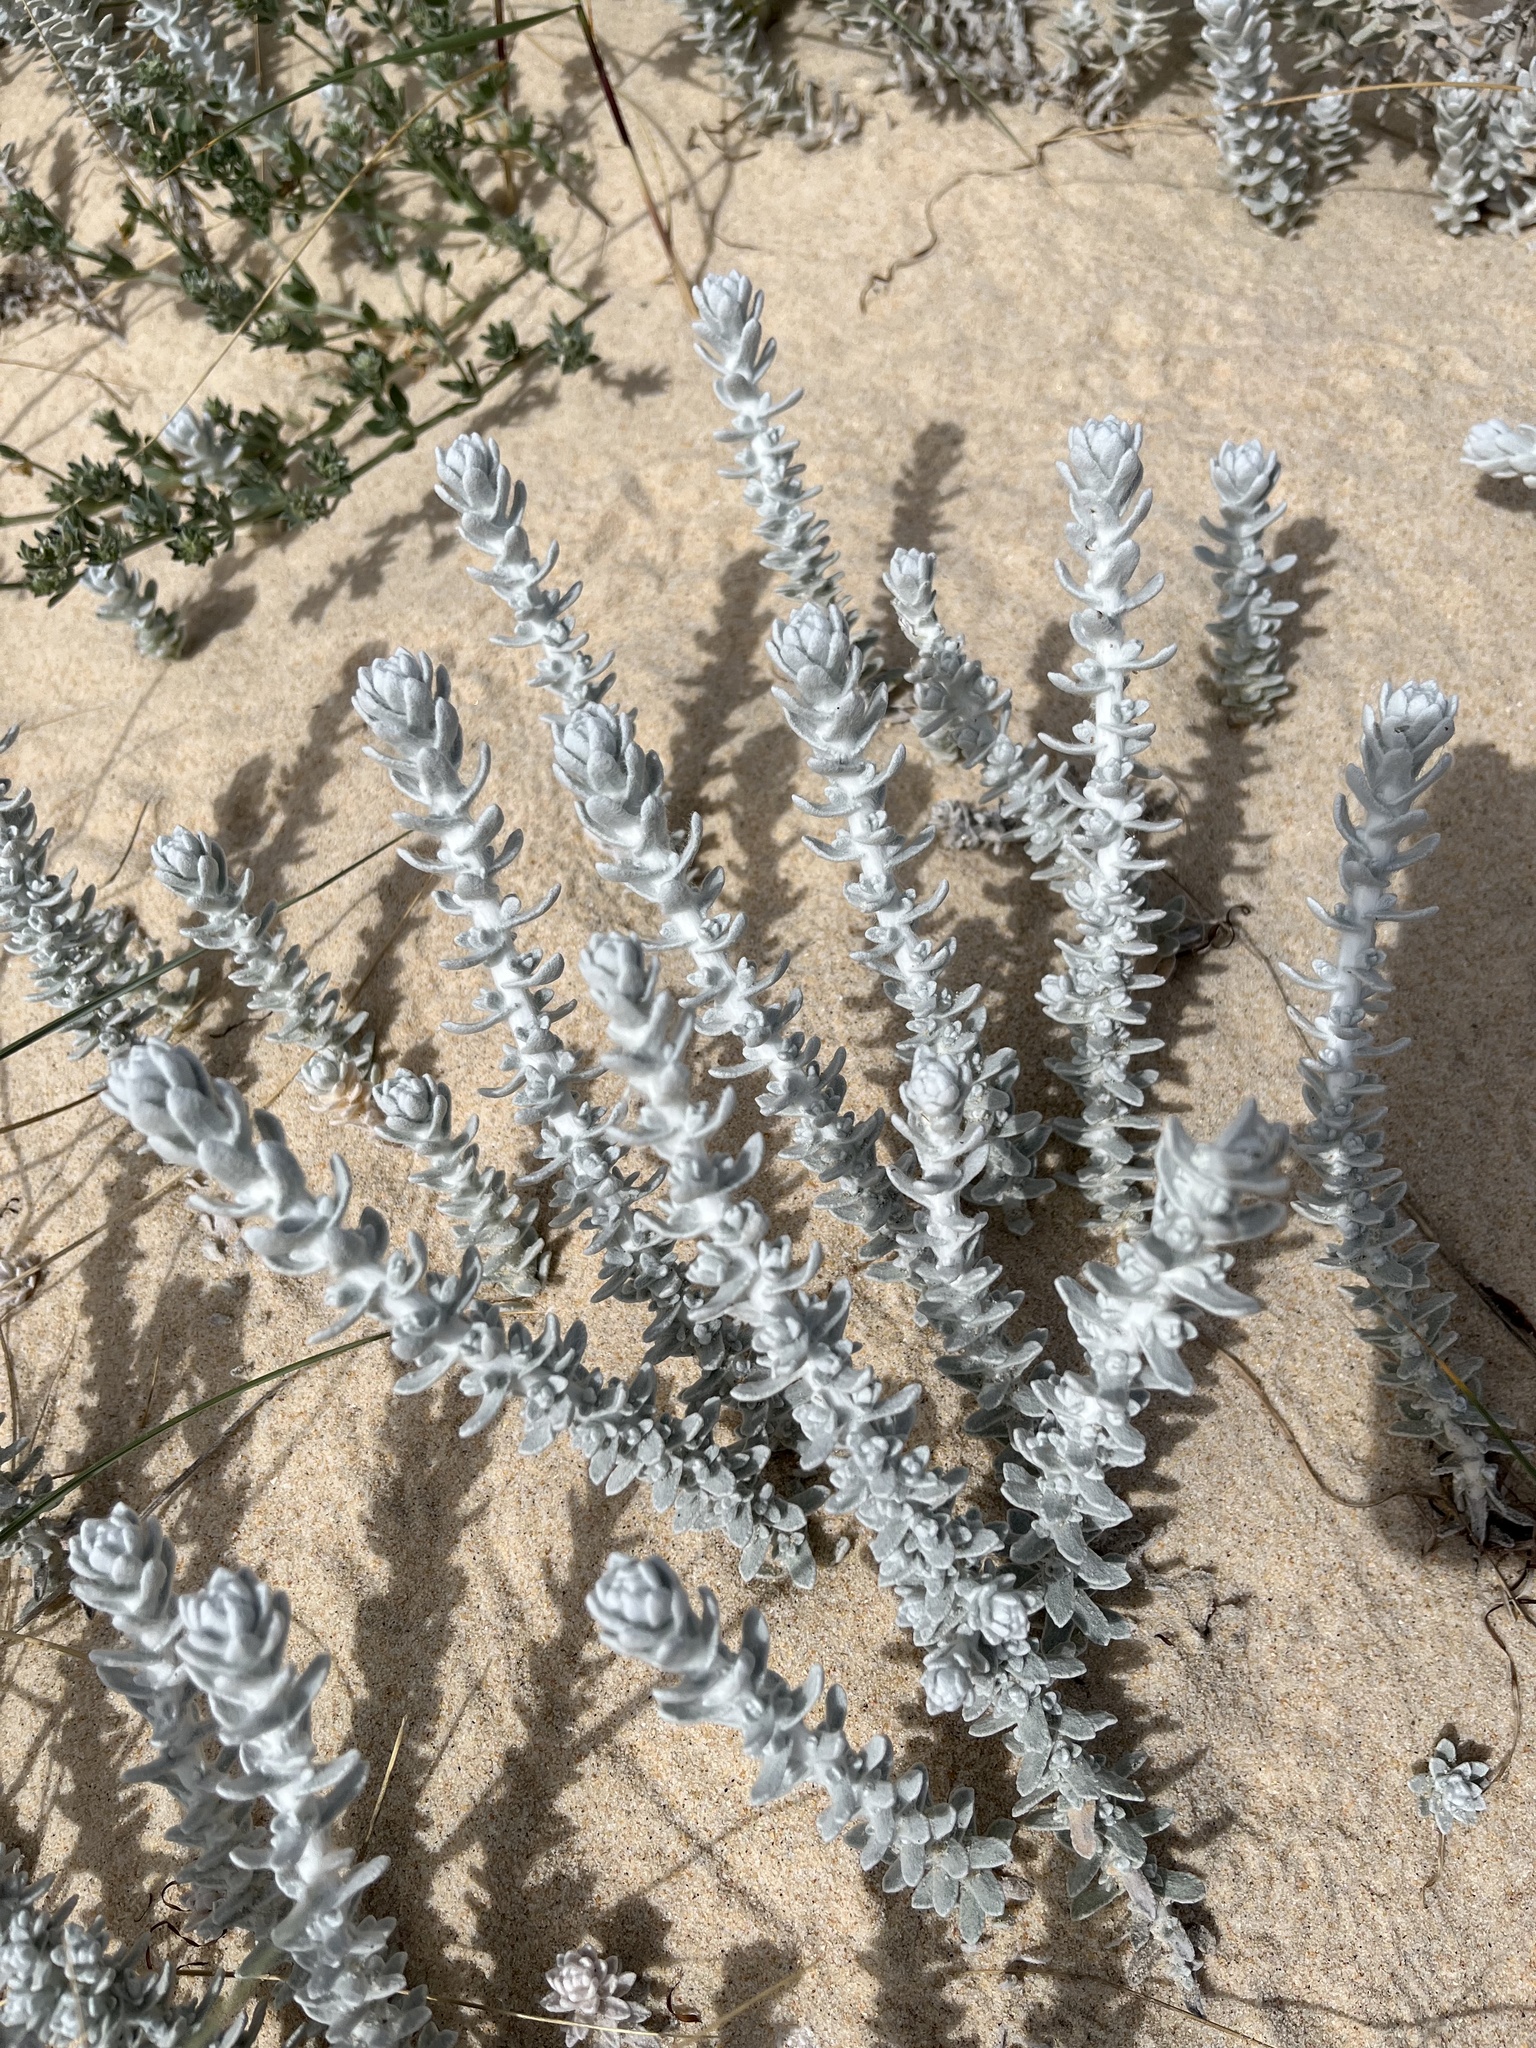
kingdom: Plantae
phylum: Tracheophyta
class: Magnoliopsida
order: Asterales
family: Asteraceae
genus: Achillea
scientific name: Achillea maritima
